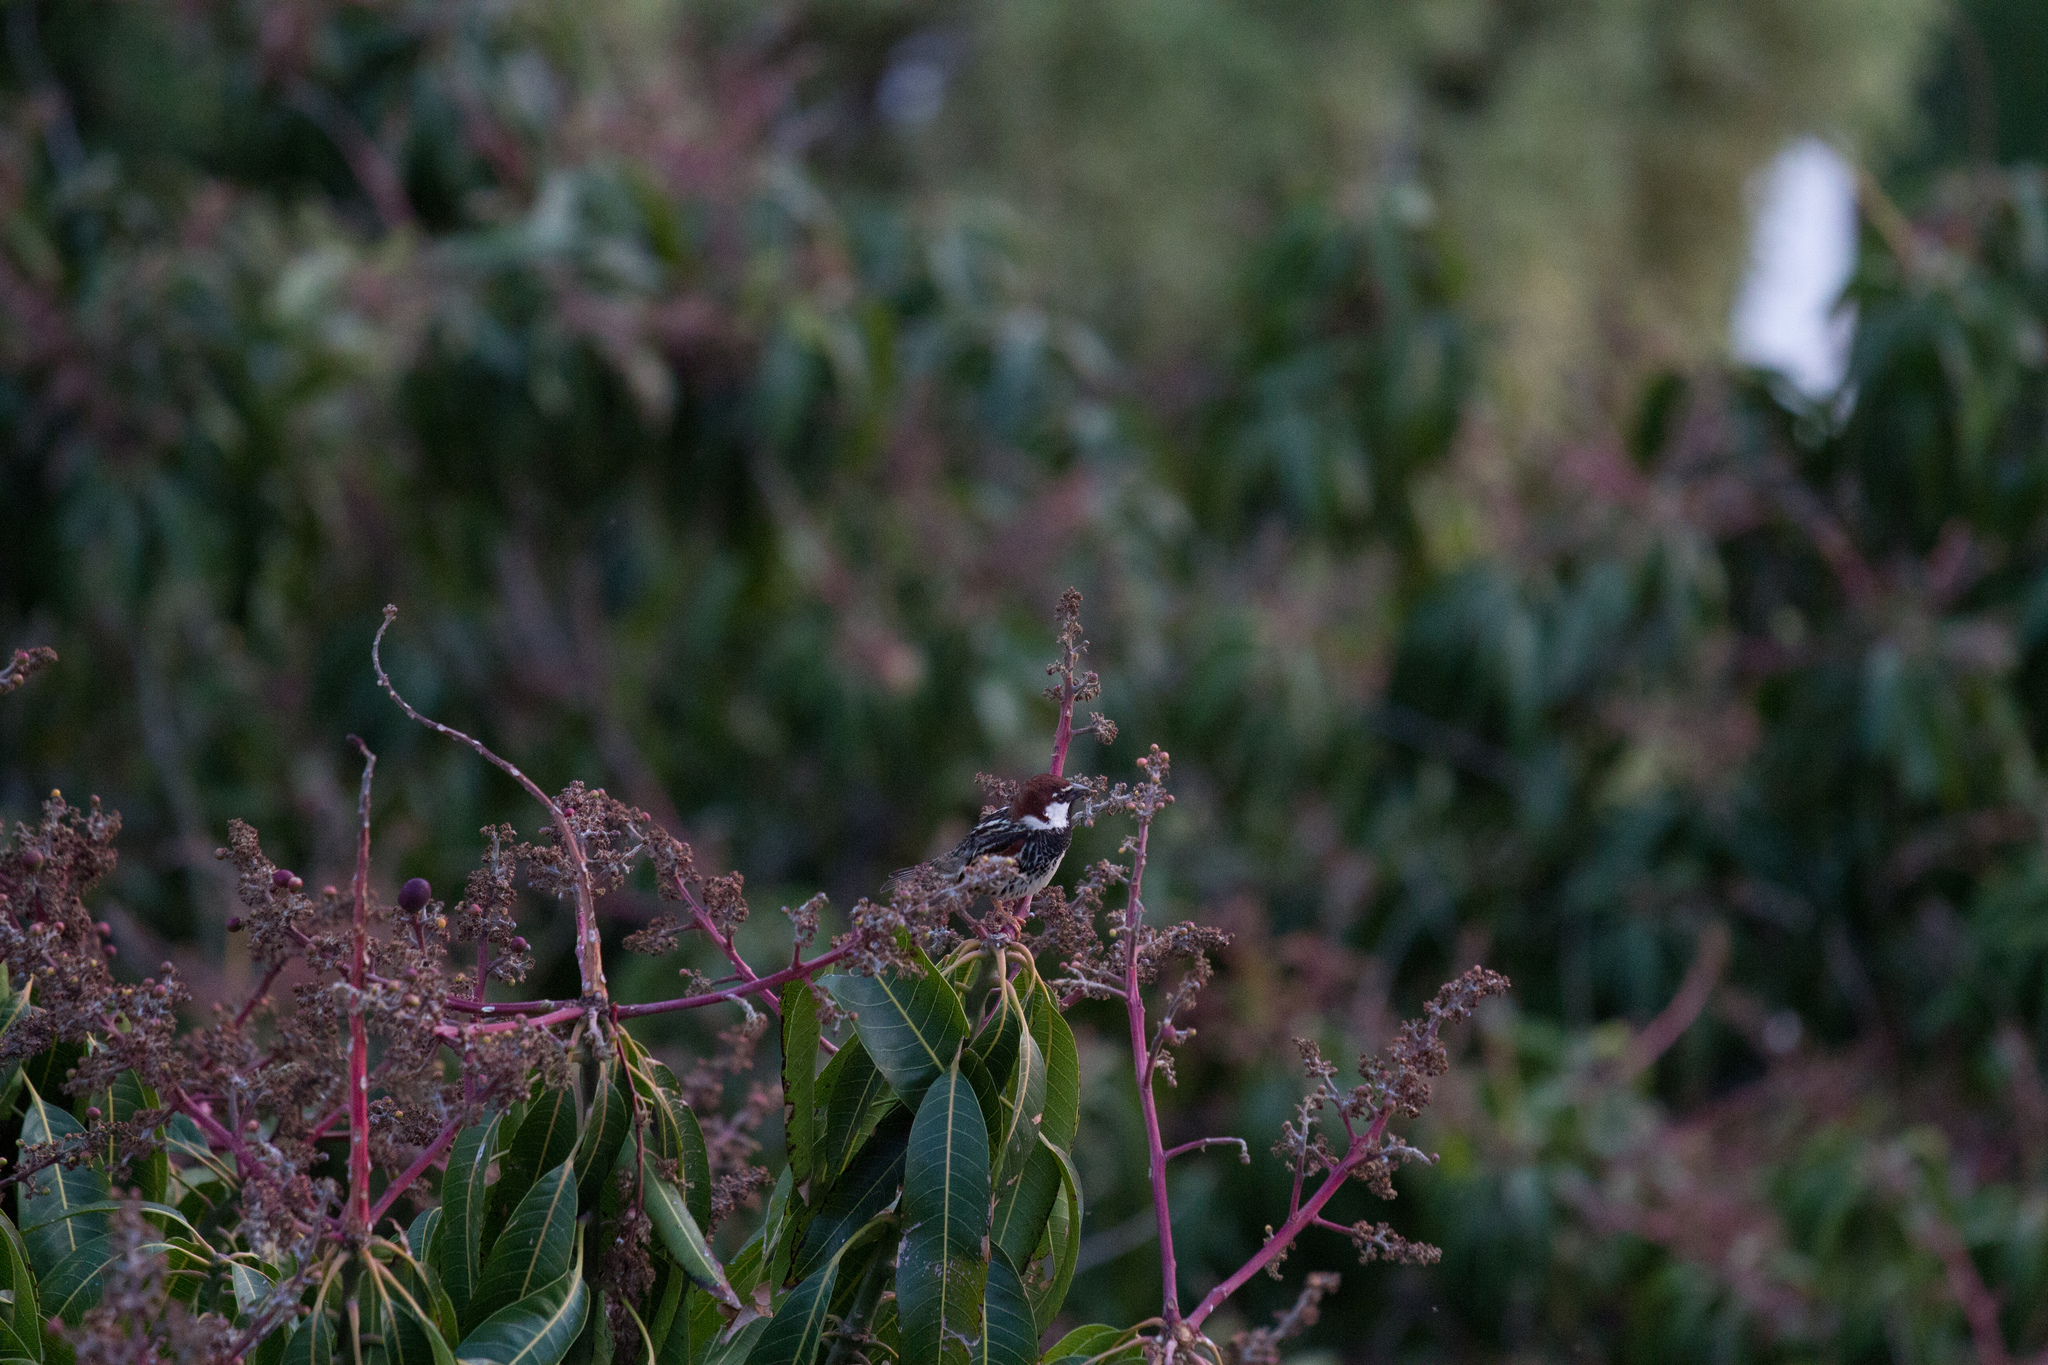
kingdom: Animalia
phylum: Chordata
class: Aves
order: Passeriformes
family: Passeridae
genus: Passer
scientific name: Passer hispaniolensis
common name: Spanish sparrow
